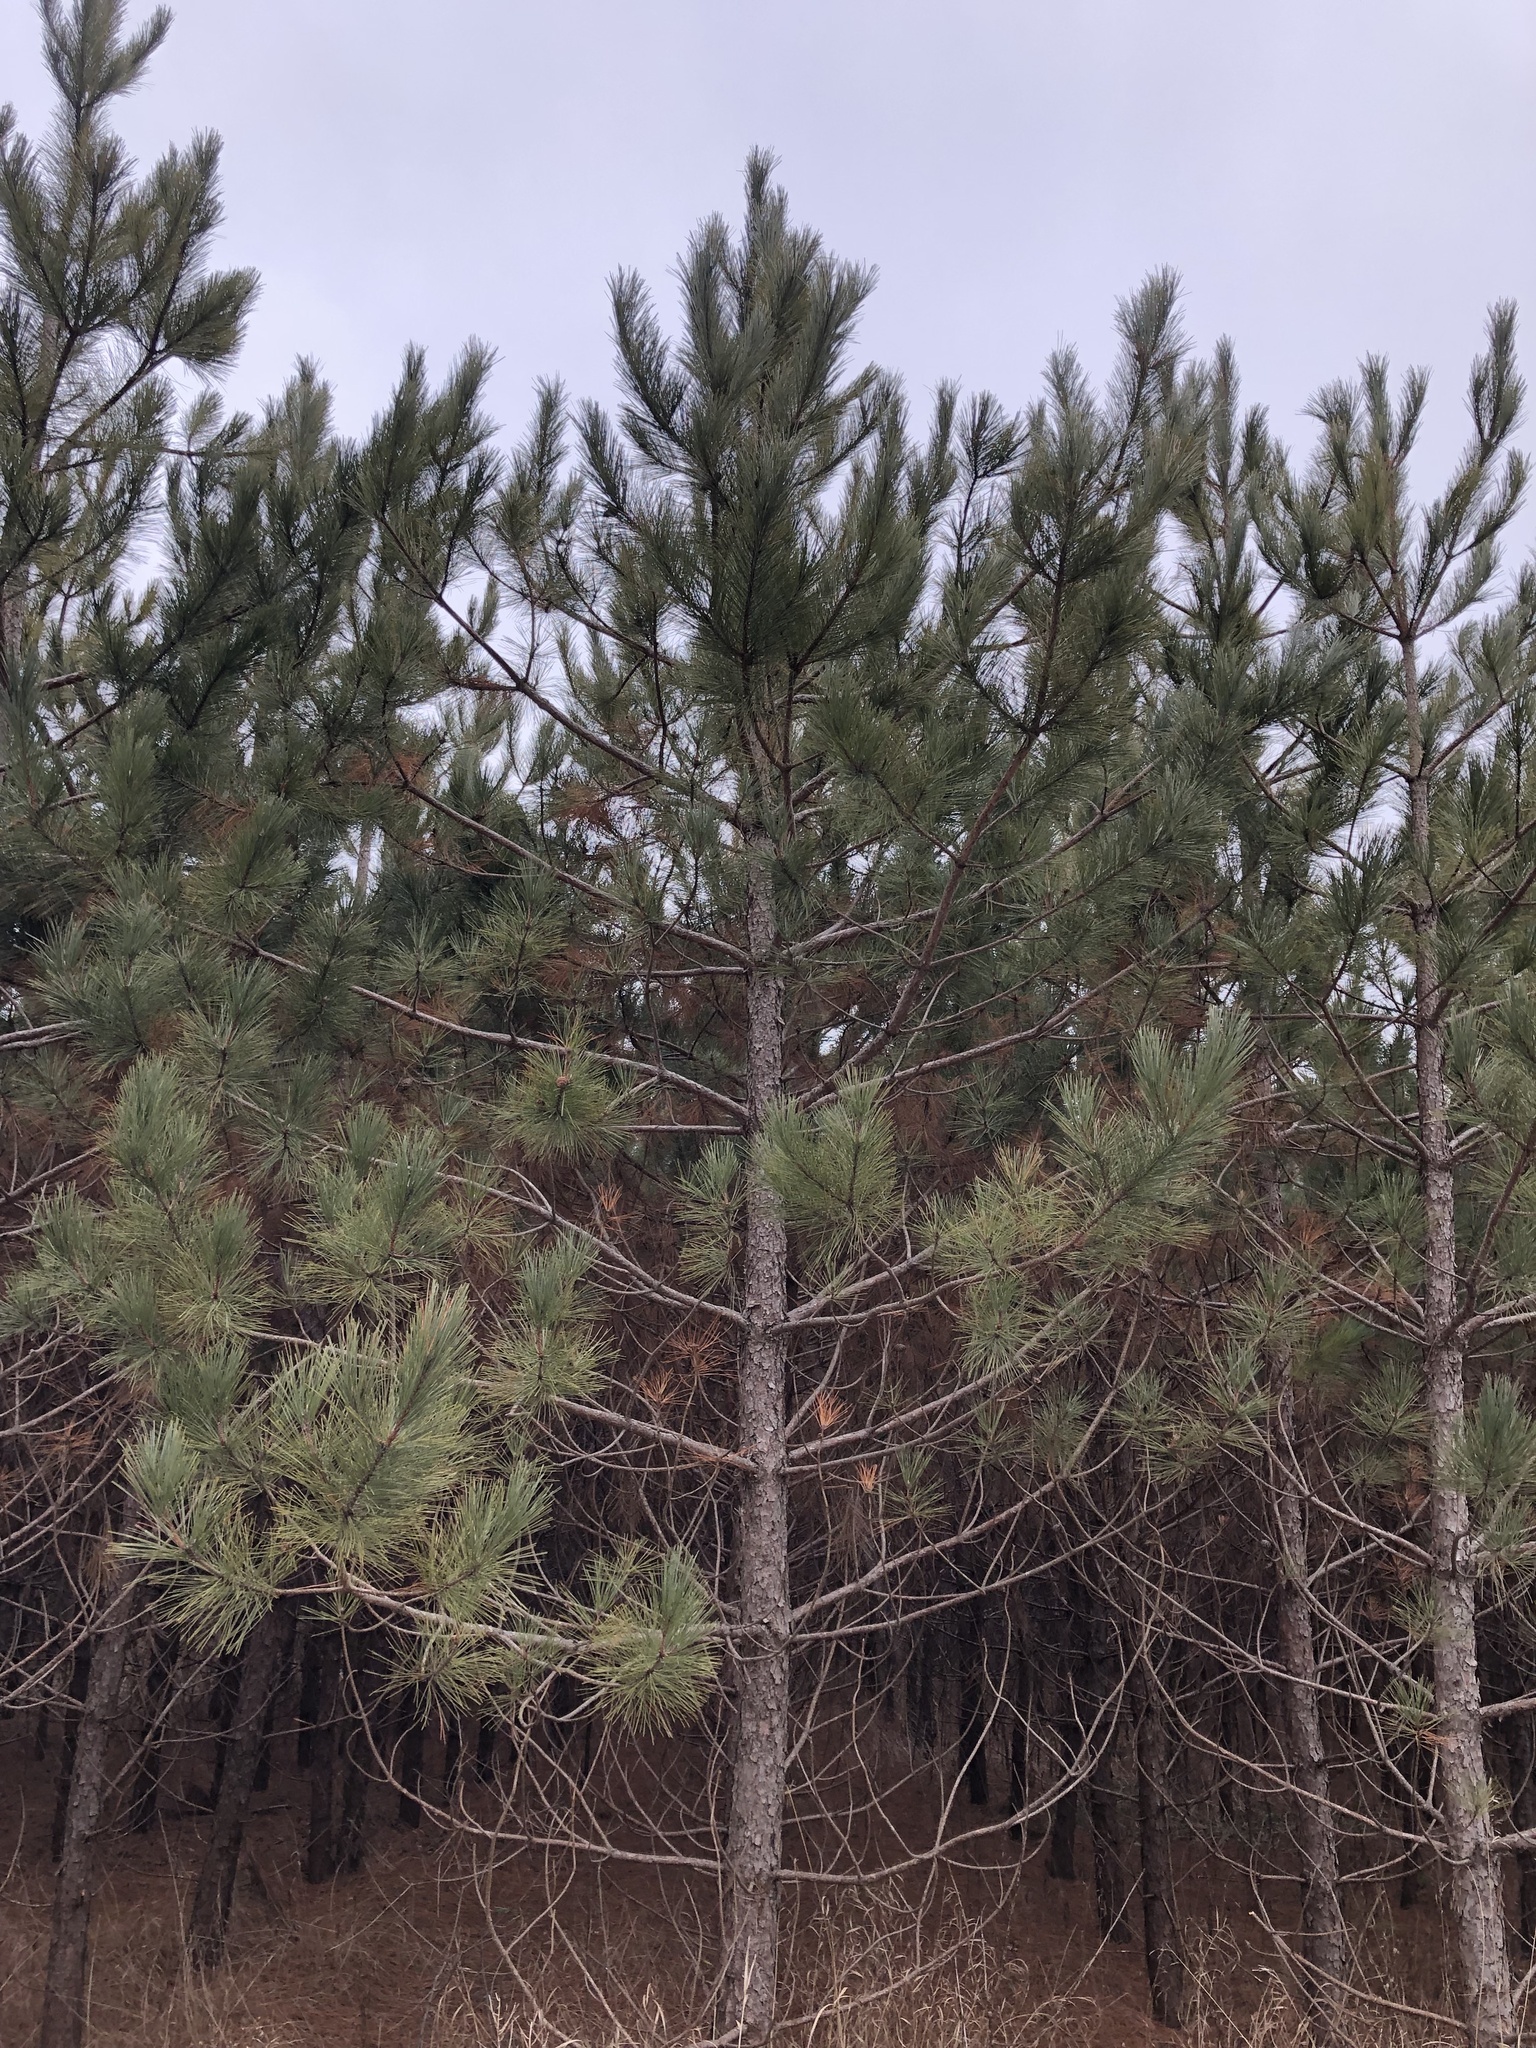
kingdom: Plantae
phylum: Tracheophyta
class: Pinopsida
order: Pinales
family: Pinaceae
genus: Pinus
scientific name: Pinus resinosa
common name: Norway pine
